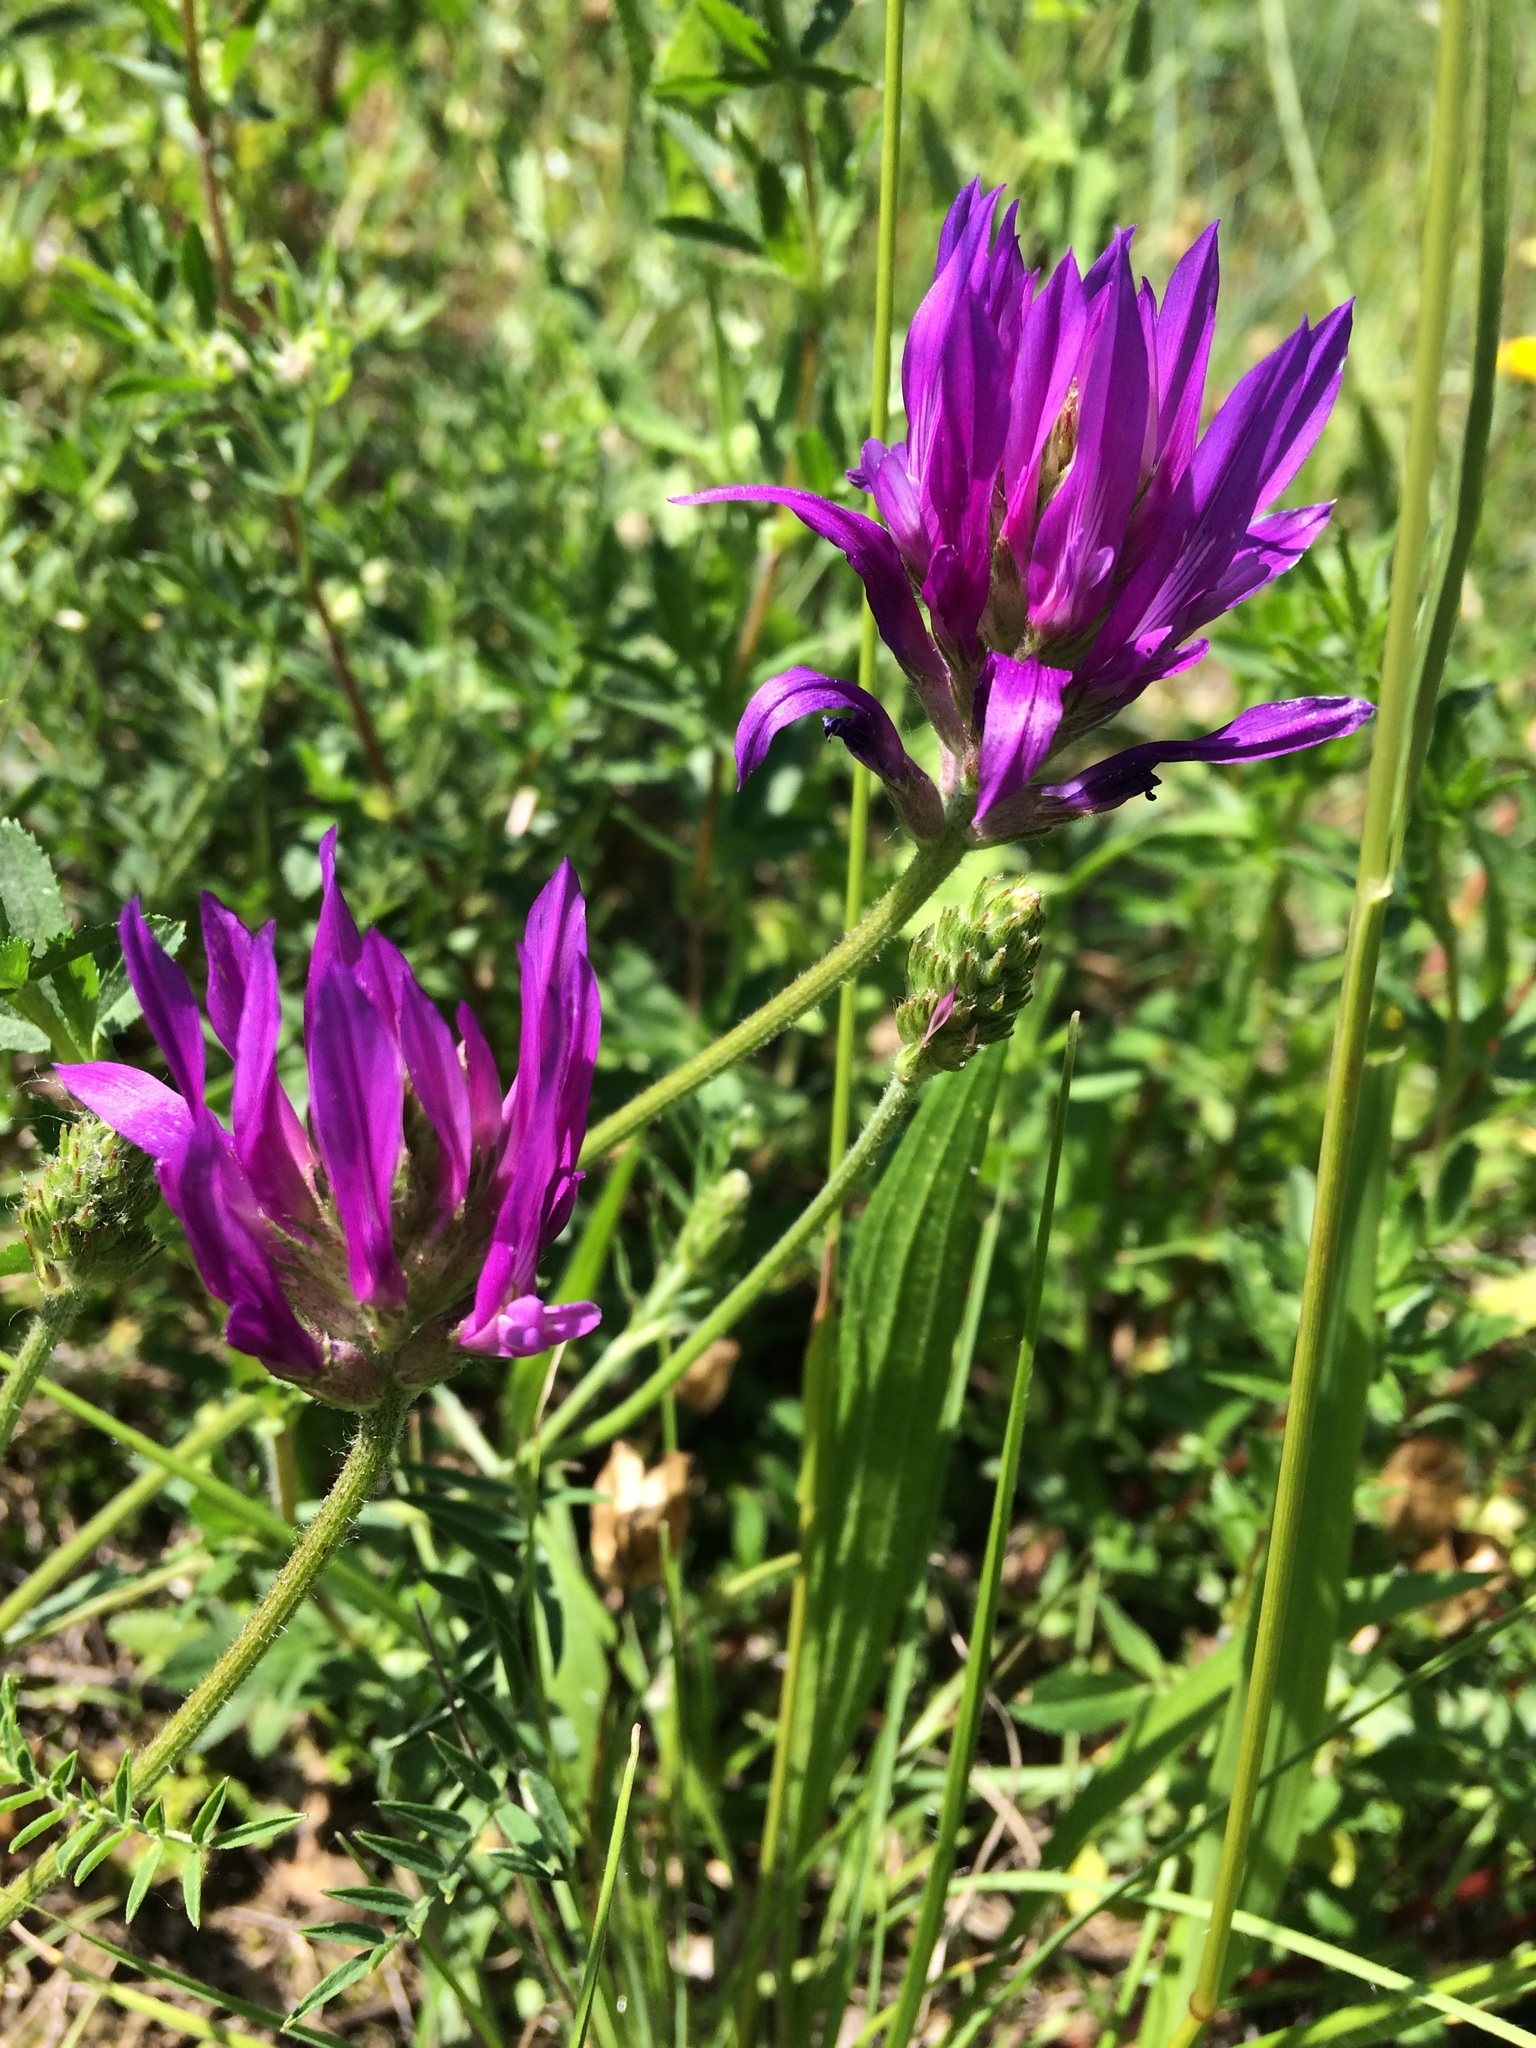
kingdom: Plantae
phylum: Tracheophyta
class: Magnoliopsida
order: Fabales
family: Fabaceae
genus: Astragalus
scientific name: Astragalus onobrychis
